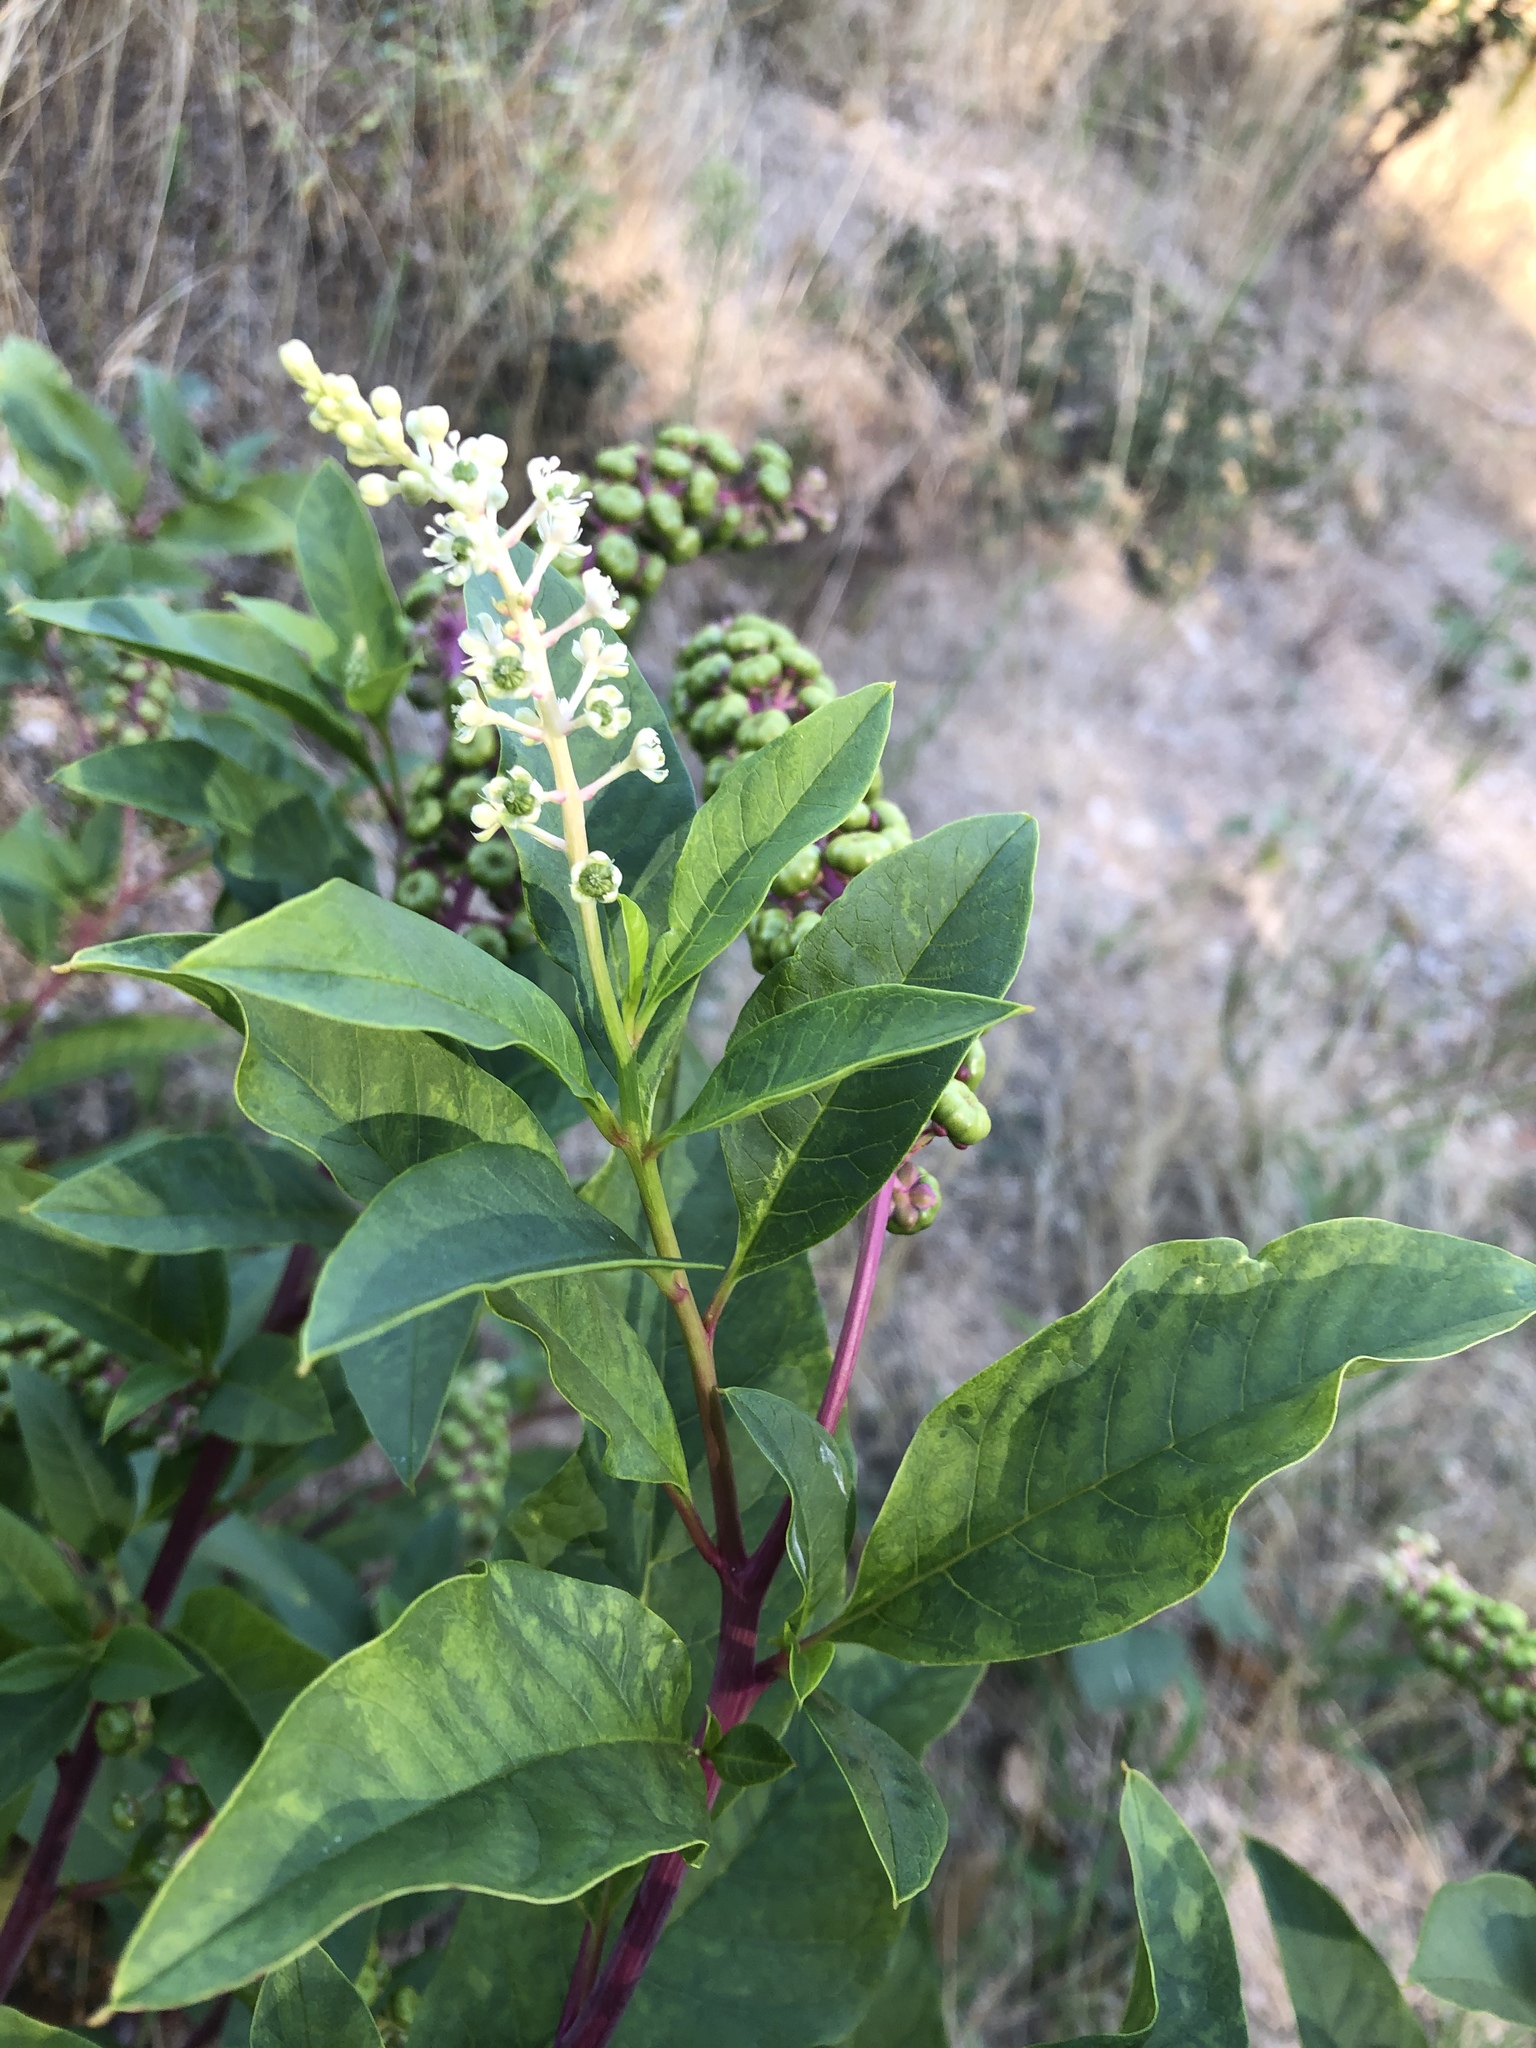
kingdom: Plantae
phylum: Tracheophyta
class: Magnoliopsida
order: Caryophyllales
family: Phytolaccaceae
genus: Phytolacca
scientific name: Phytolacca americana
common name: American pokeweed
